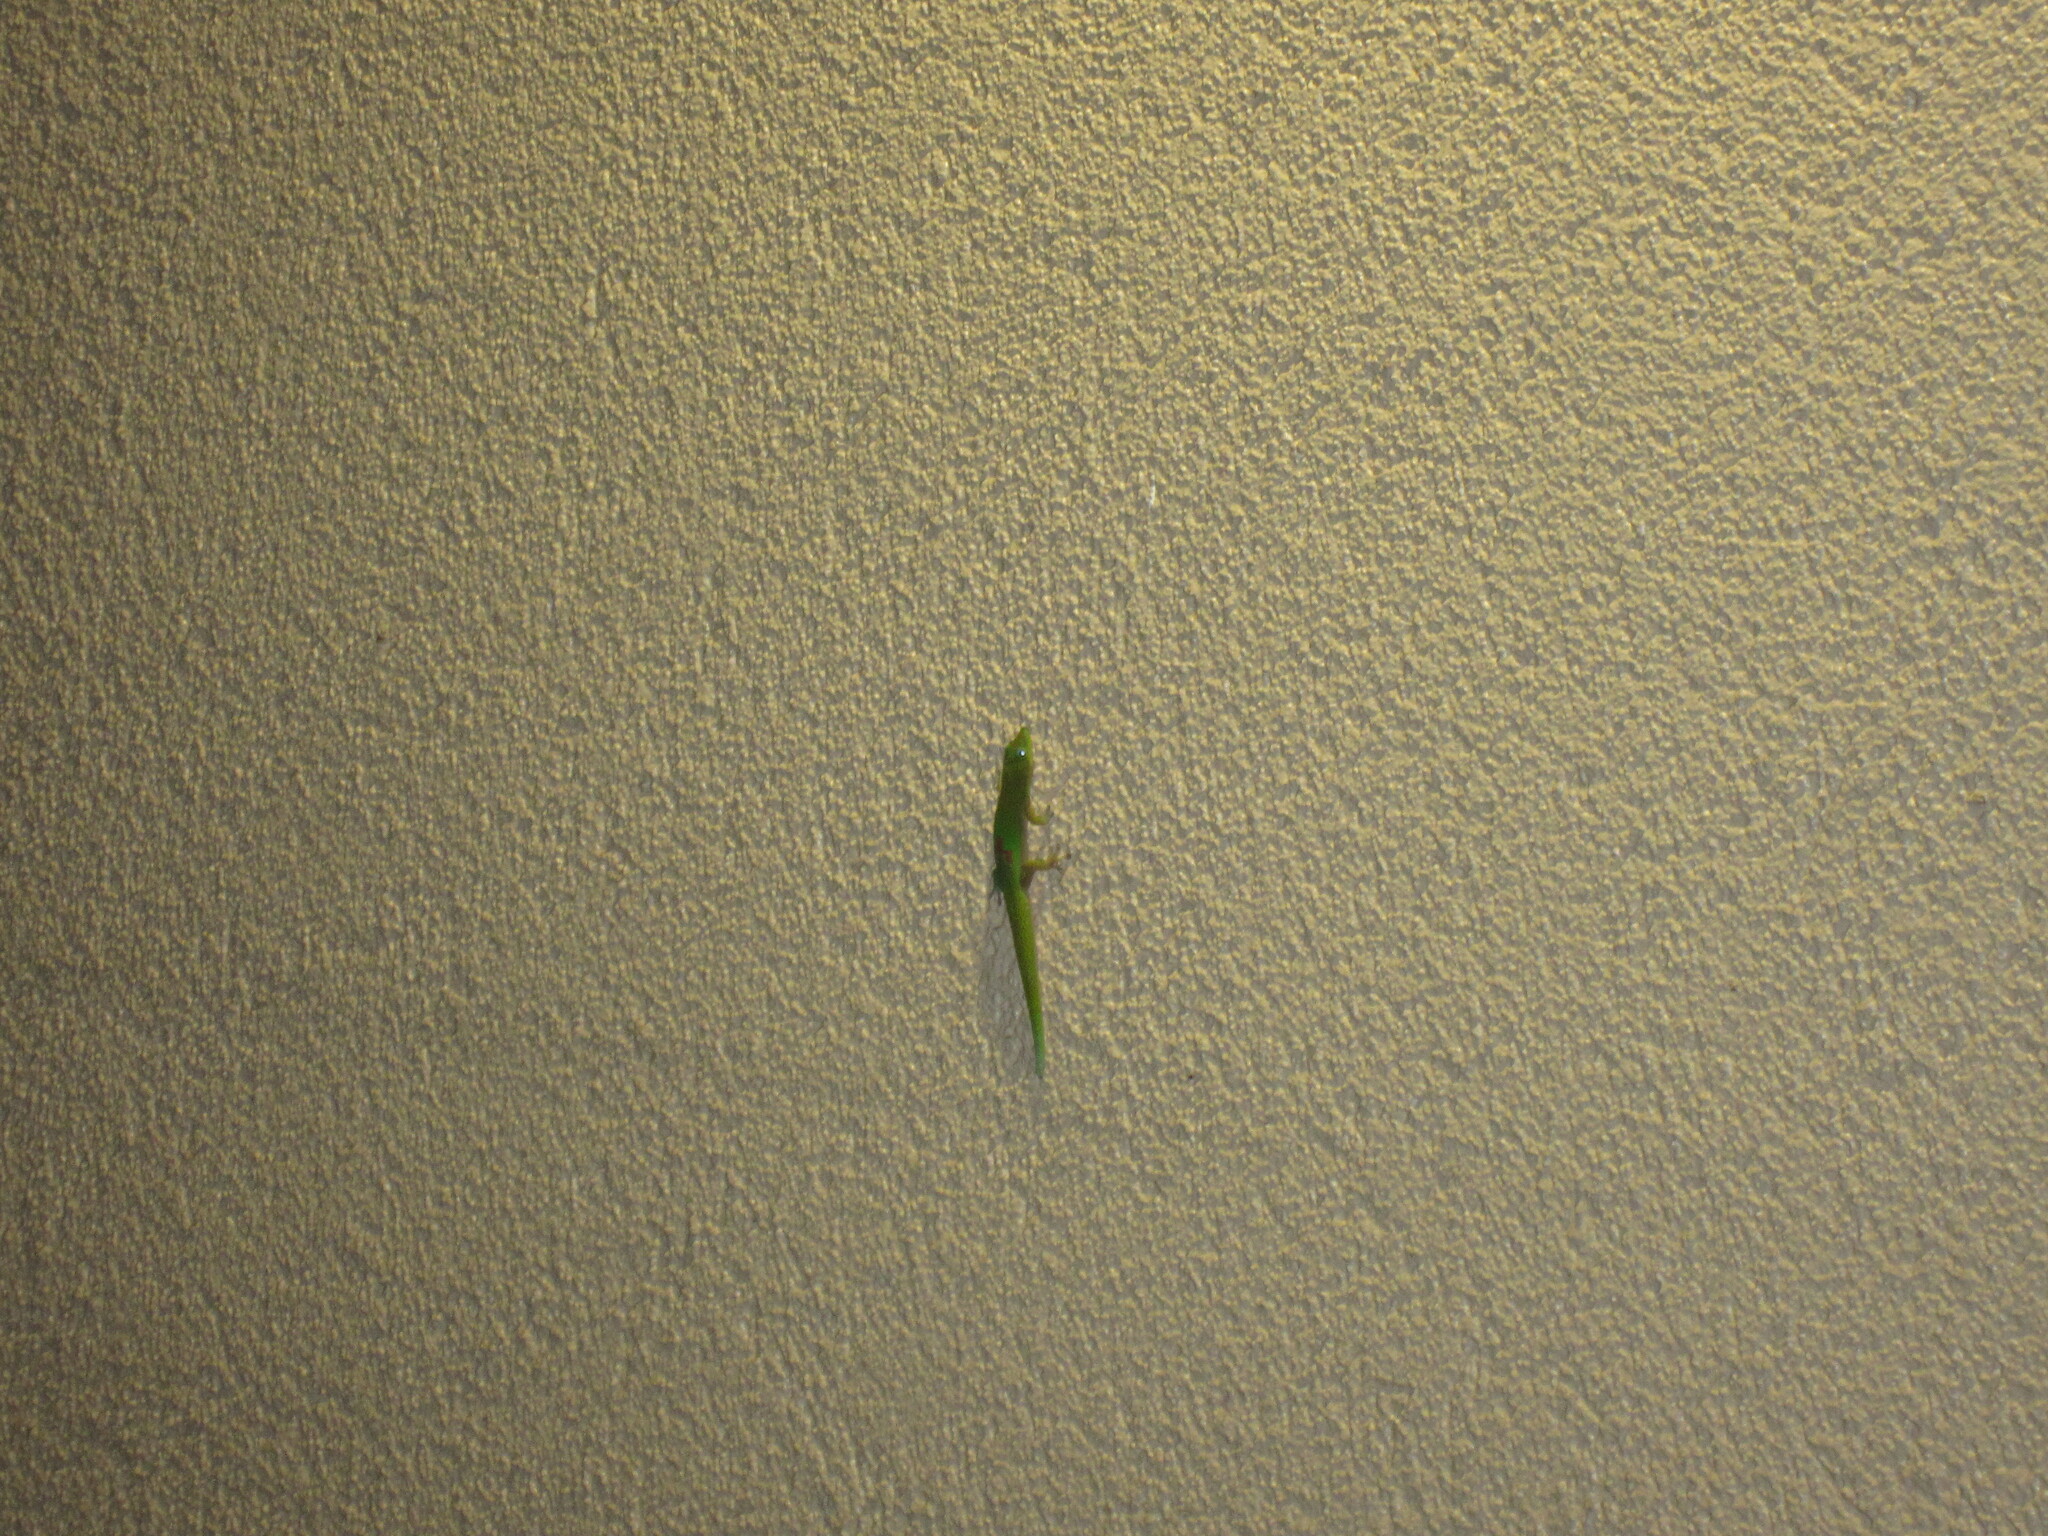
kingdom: Animalia
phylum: Chordata
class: Squamata
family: Gekkonidae
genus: Phelsuma
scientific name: Phelsuma laticauda
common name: Gold dust day gecko
